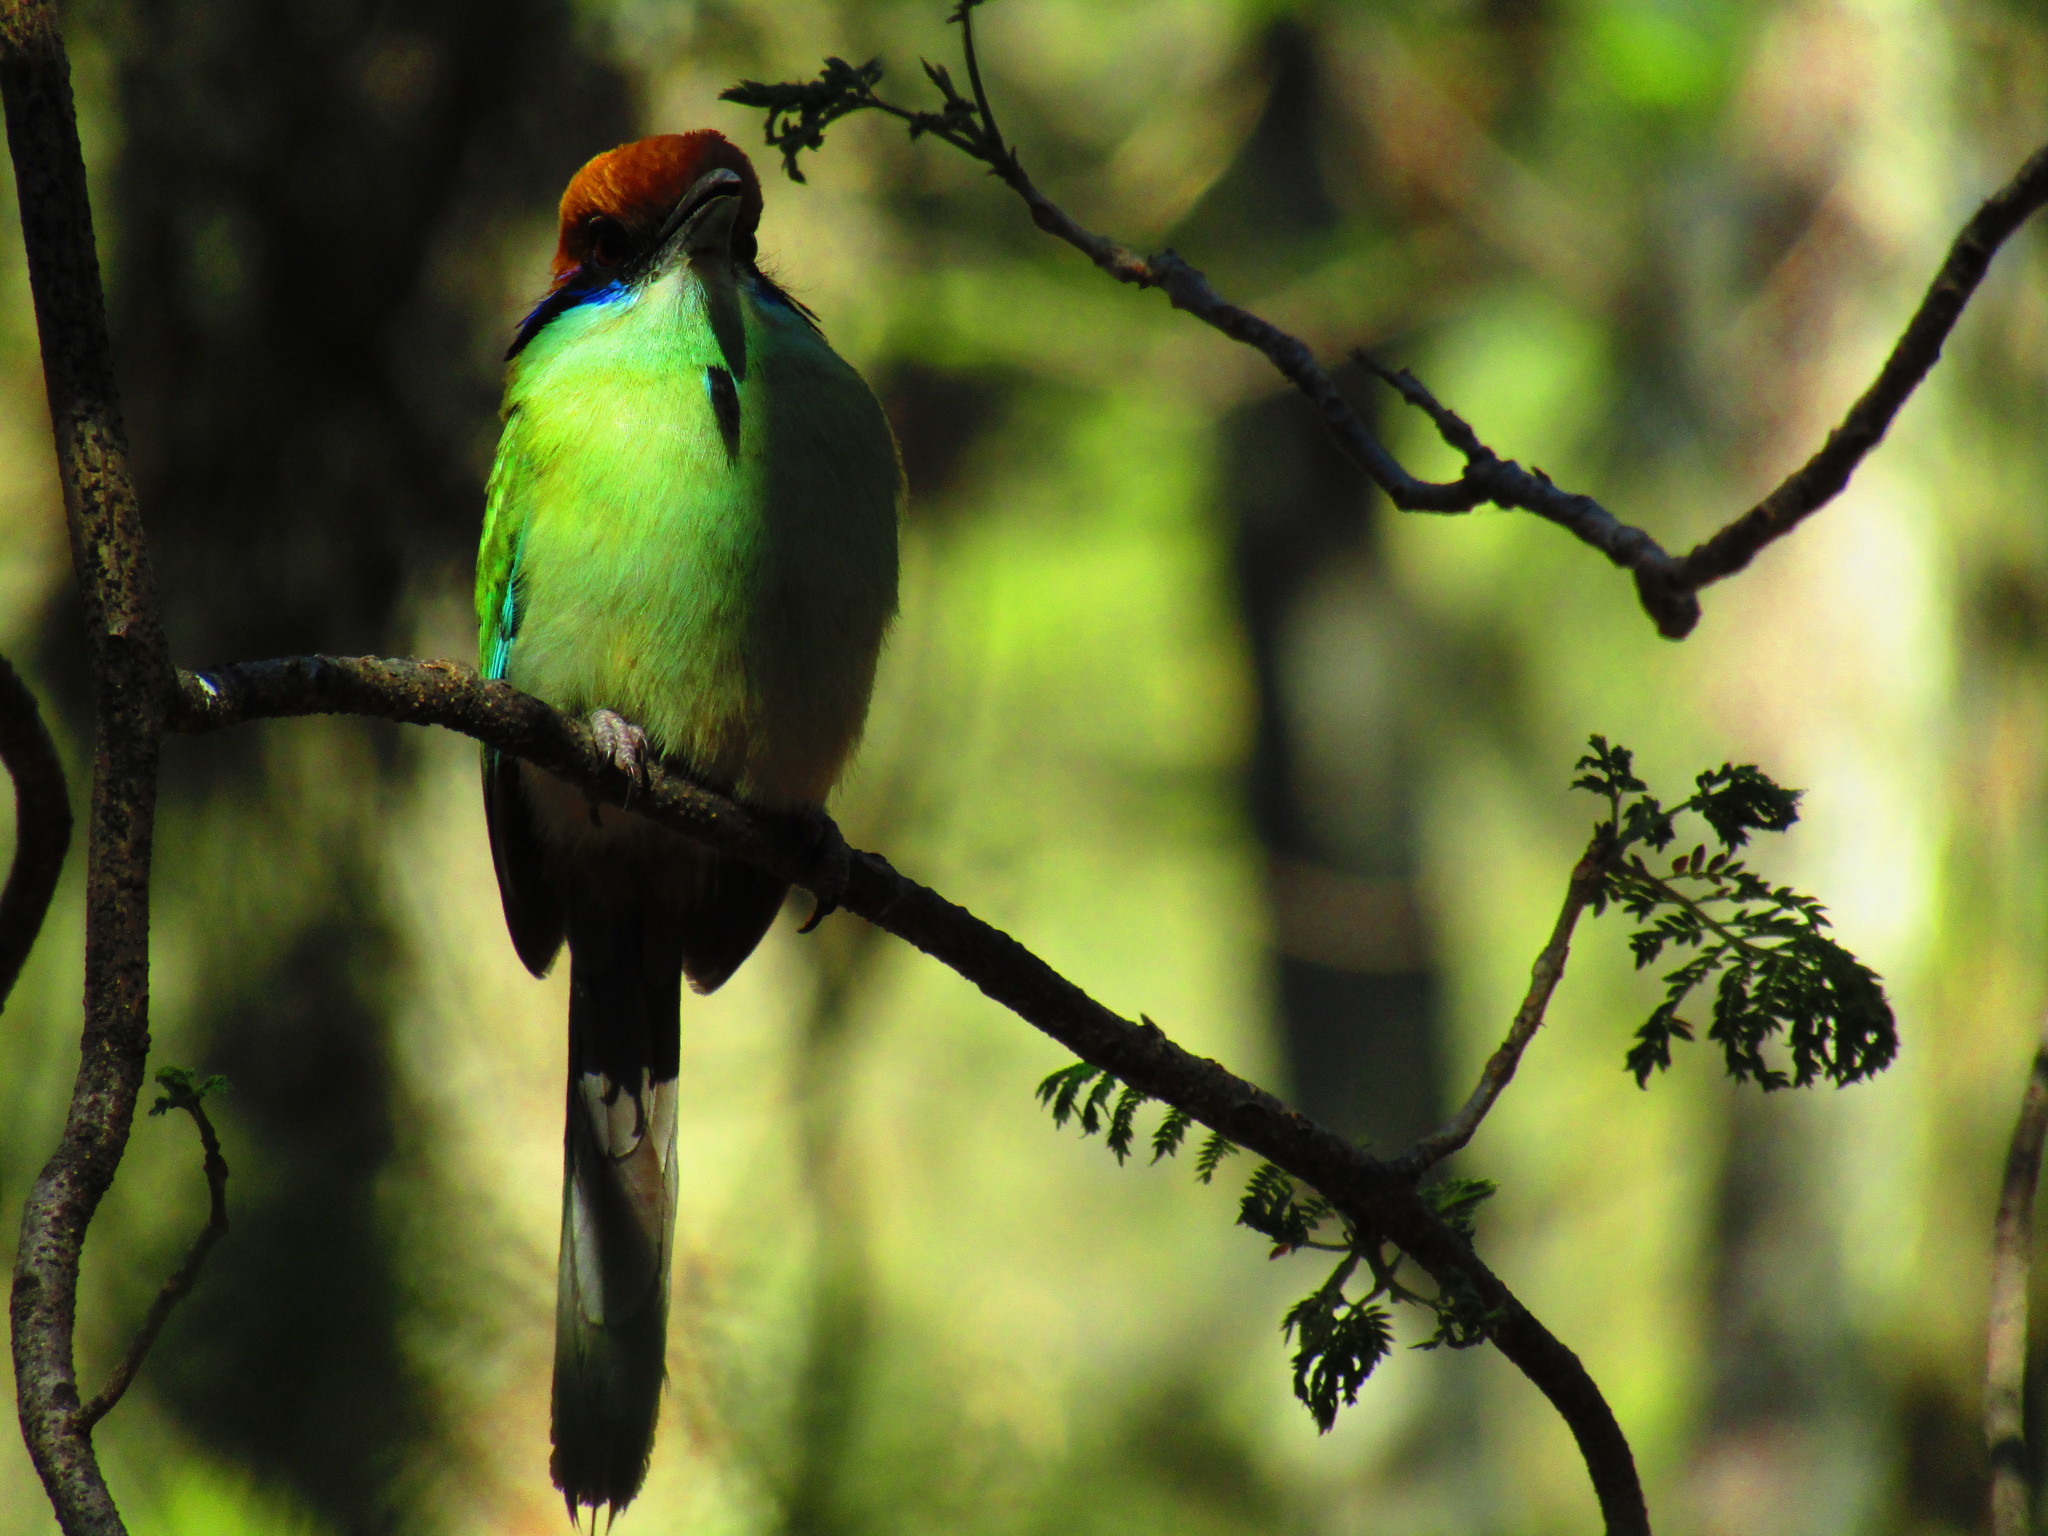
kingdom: Animalia
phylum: Chordata
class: Aves
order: Coraciiformes
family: Momotidae
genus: Momotus
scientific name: Momotus mexicanus
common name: Russet-crowned motmot
